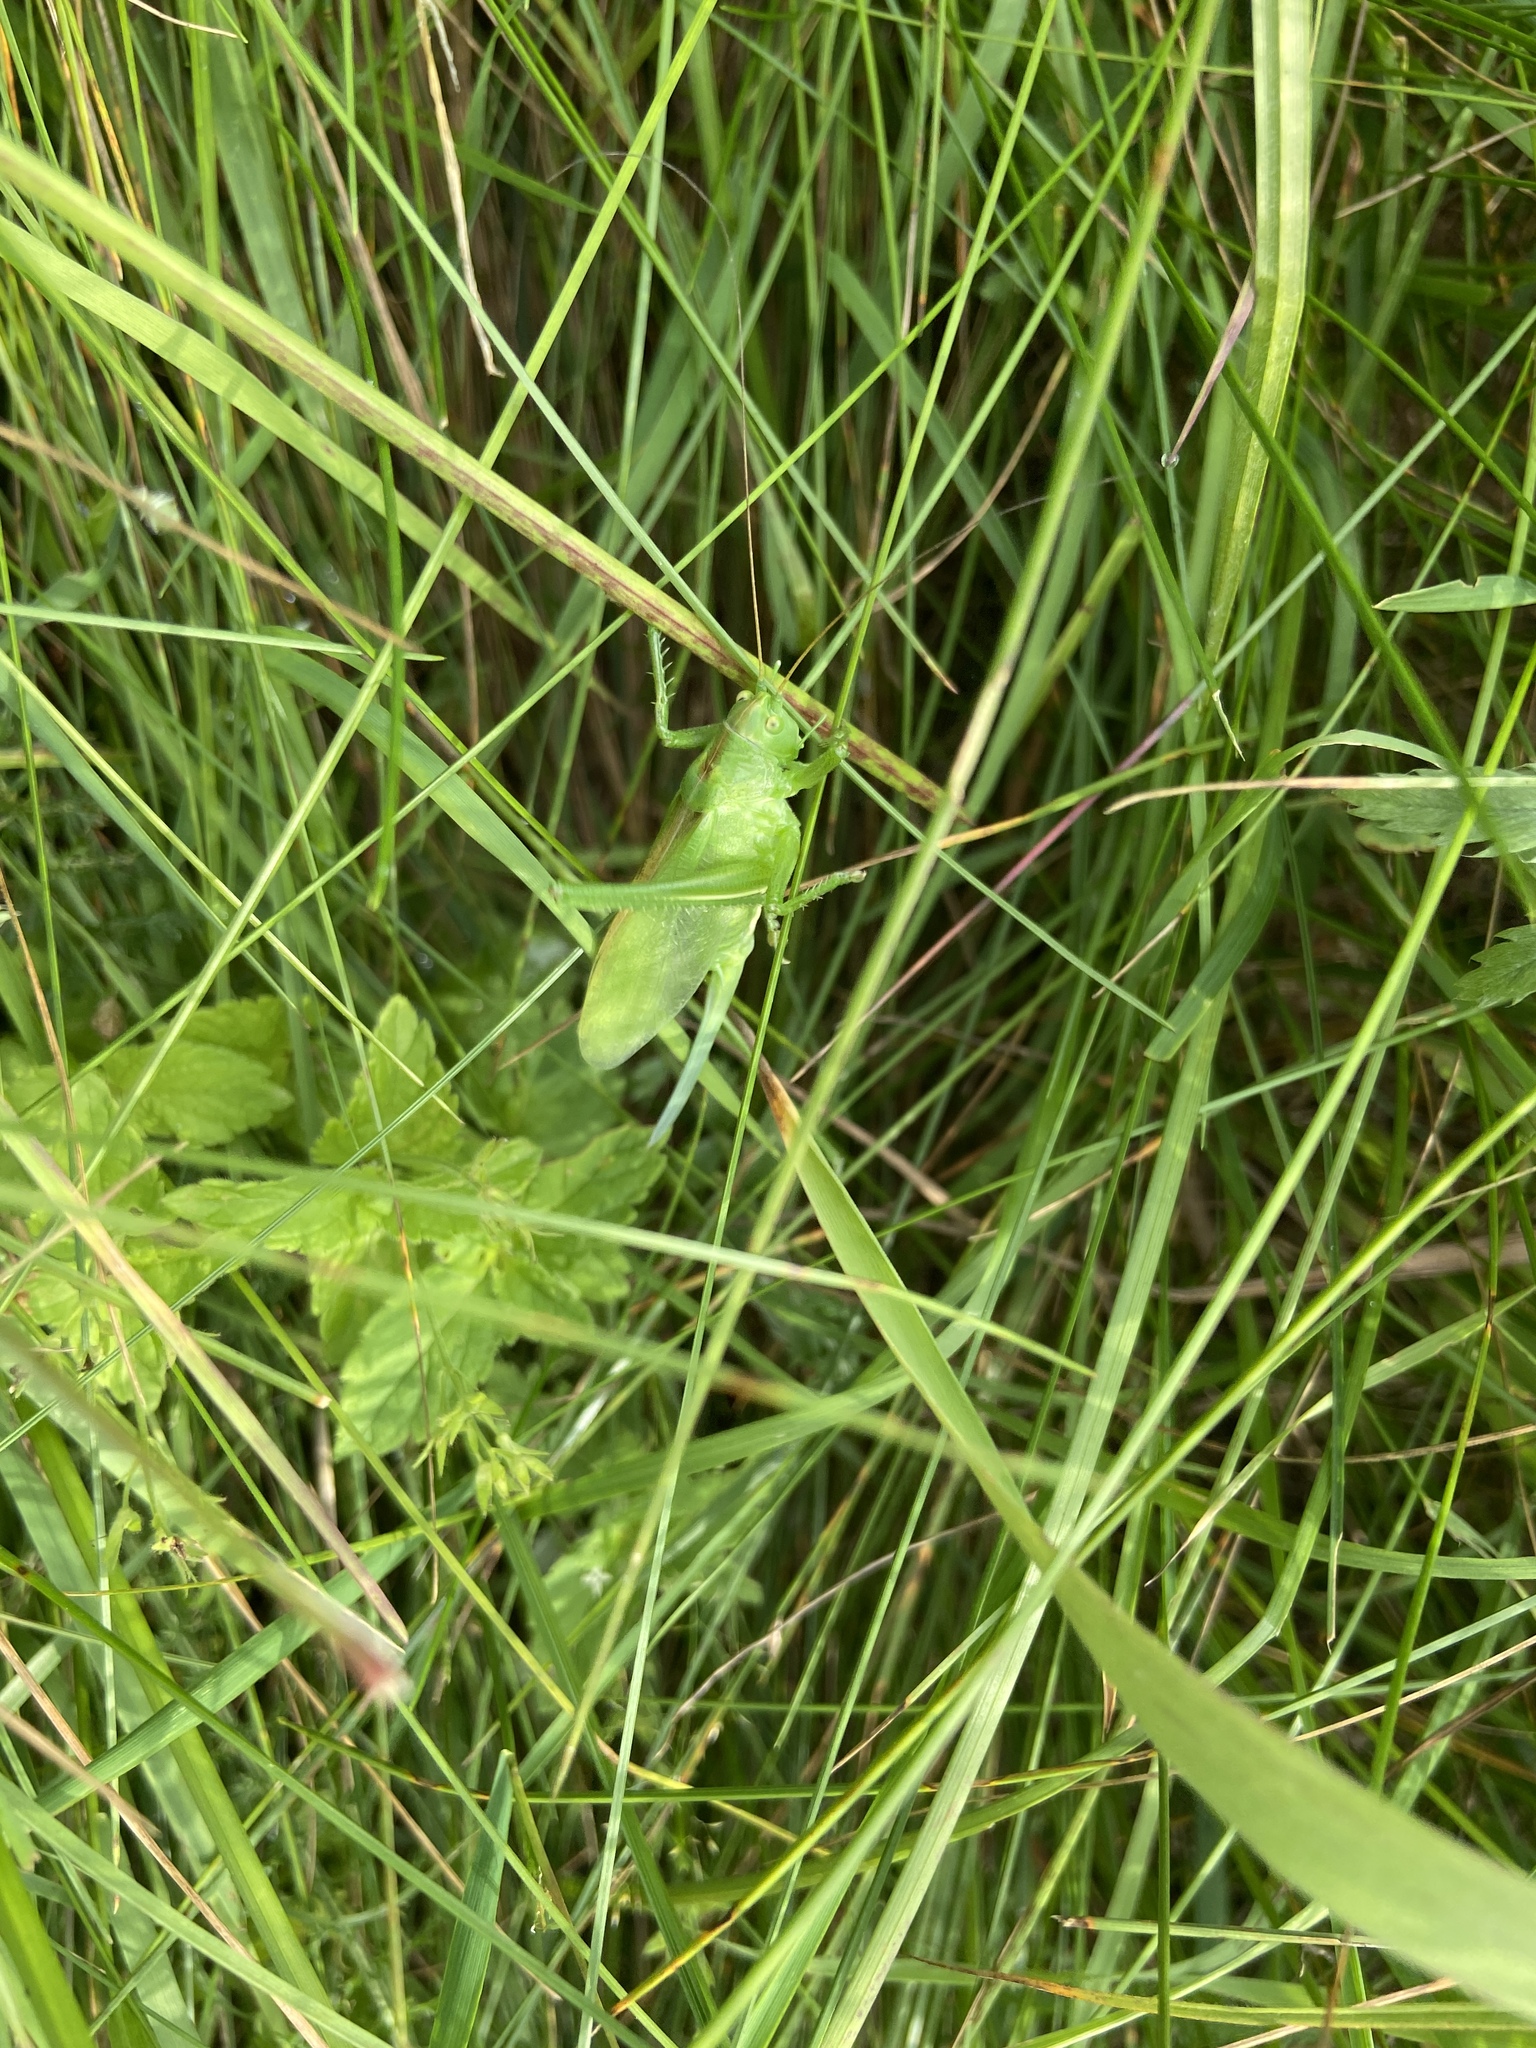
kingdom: Animalia
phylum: Arthropoda
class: Insecta
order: Orthoptera
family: Tettigoniidae
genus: Tettigonia
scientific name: Tettigonia cantans
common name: Upland green bush-cricket
